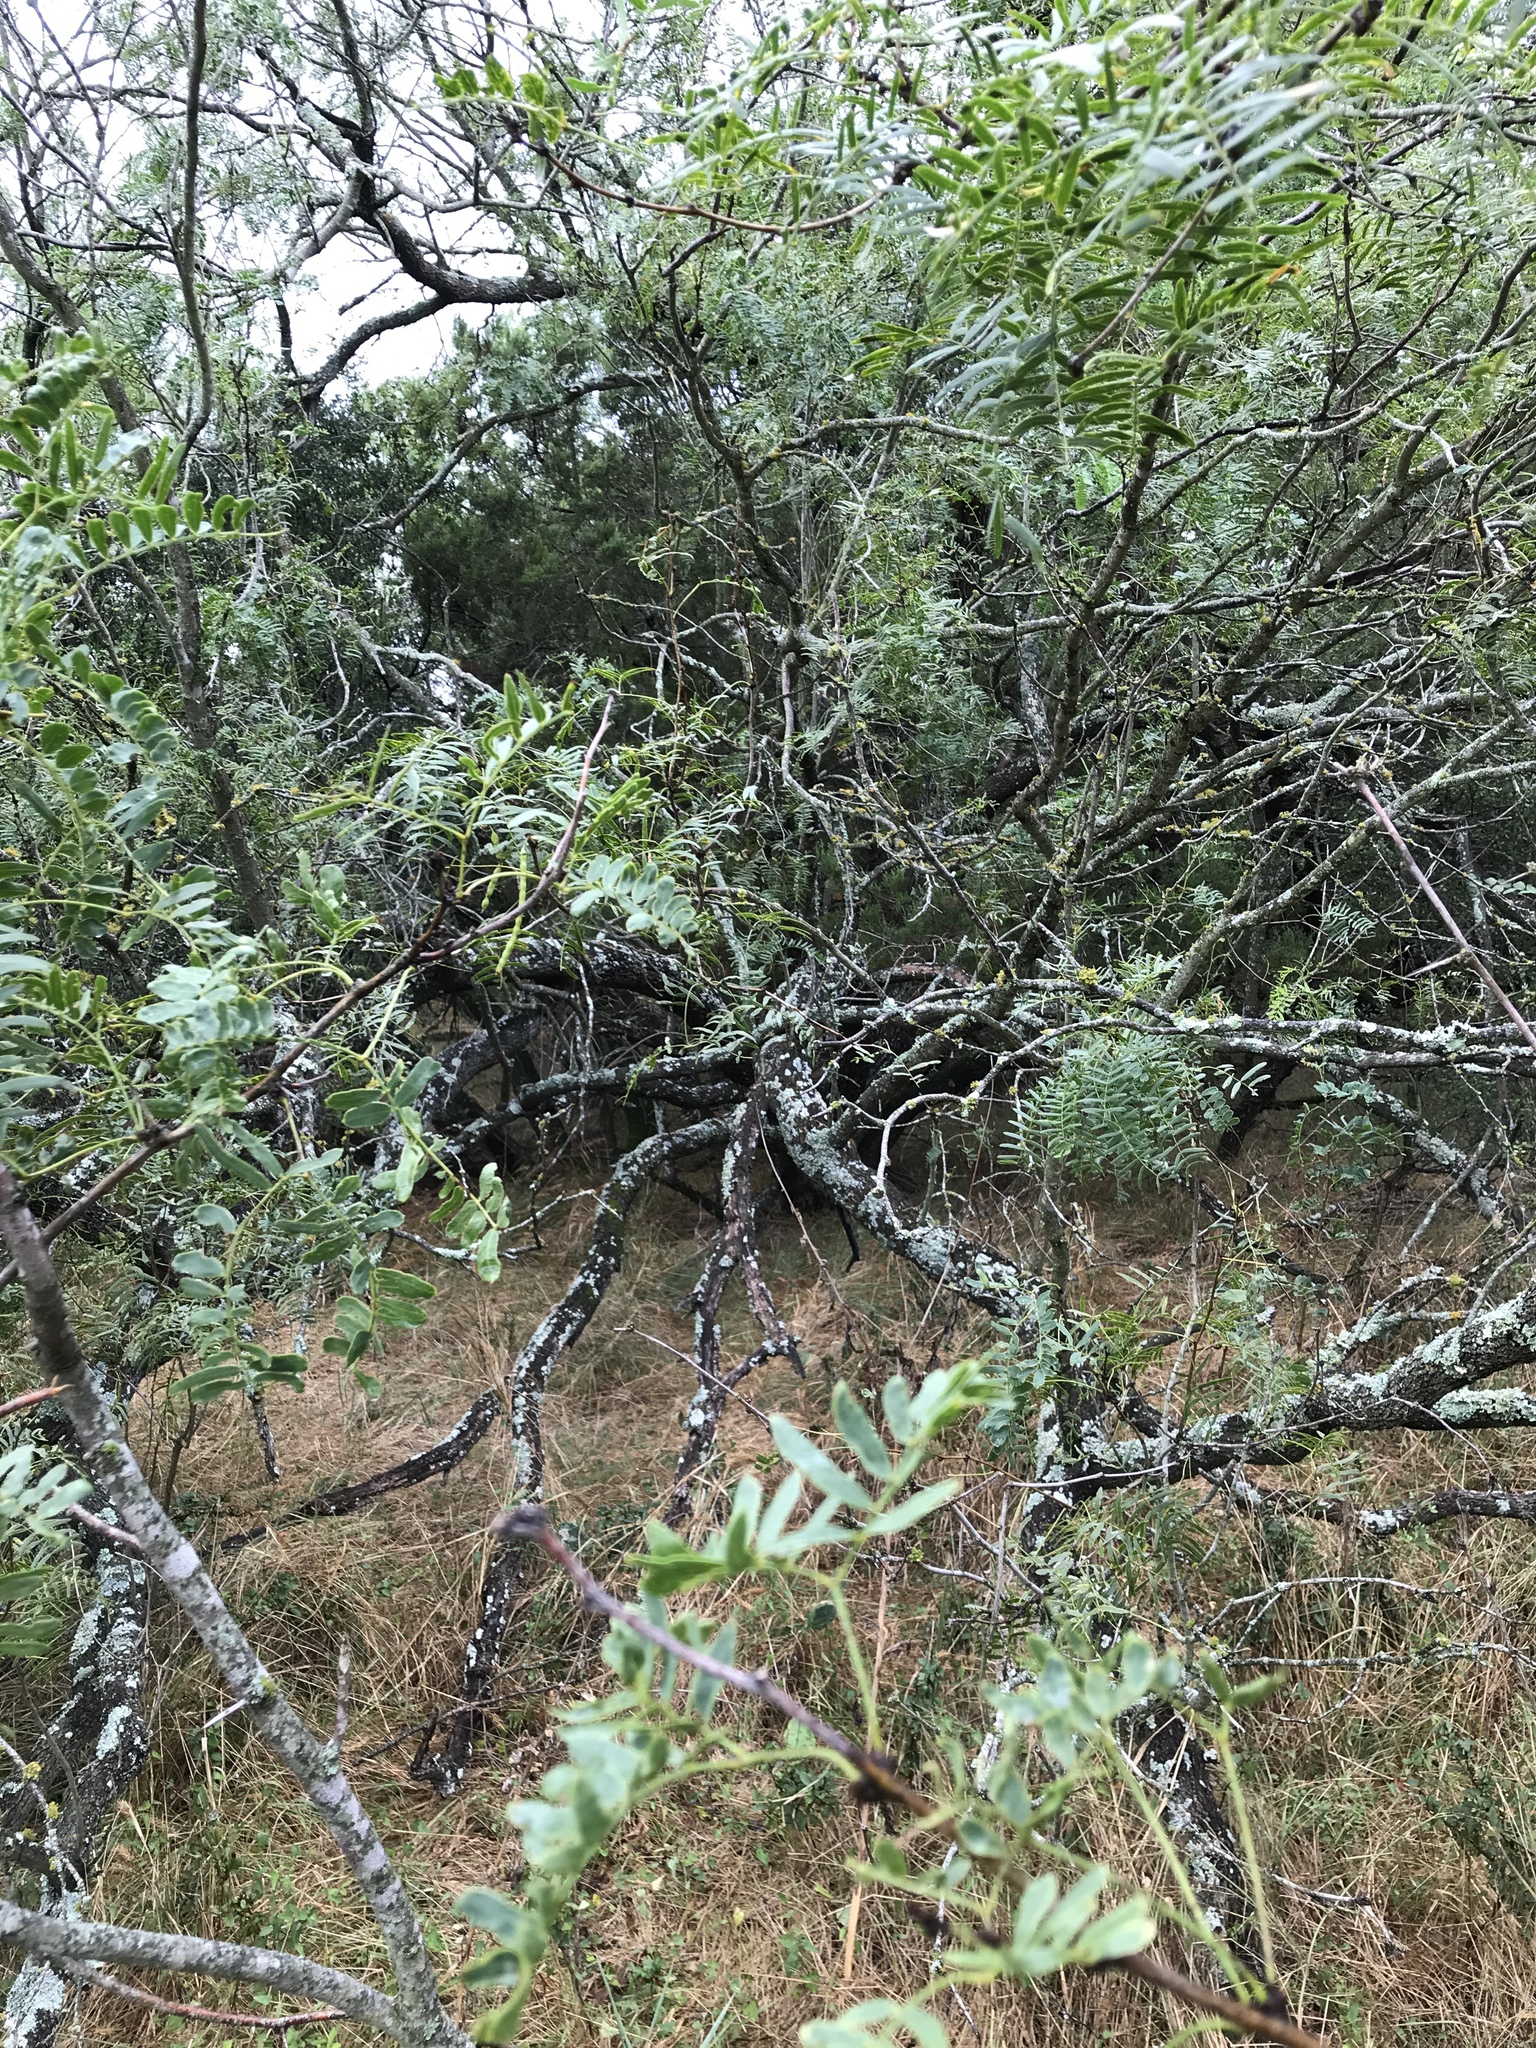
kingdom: Plantae
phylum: Tracheophyta
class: Magnoliopsida
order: Fabales
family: Fabaceae
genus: Prosopis
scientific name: Prosopis glandulosa
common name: Honey mesquite
